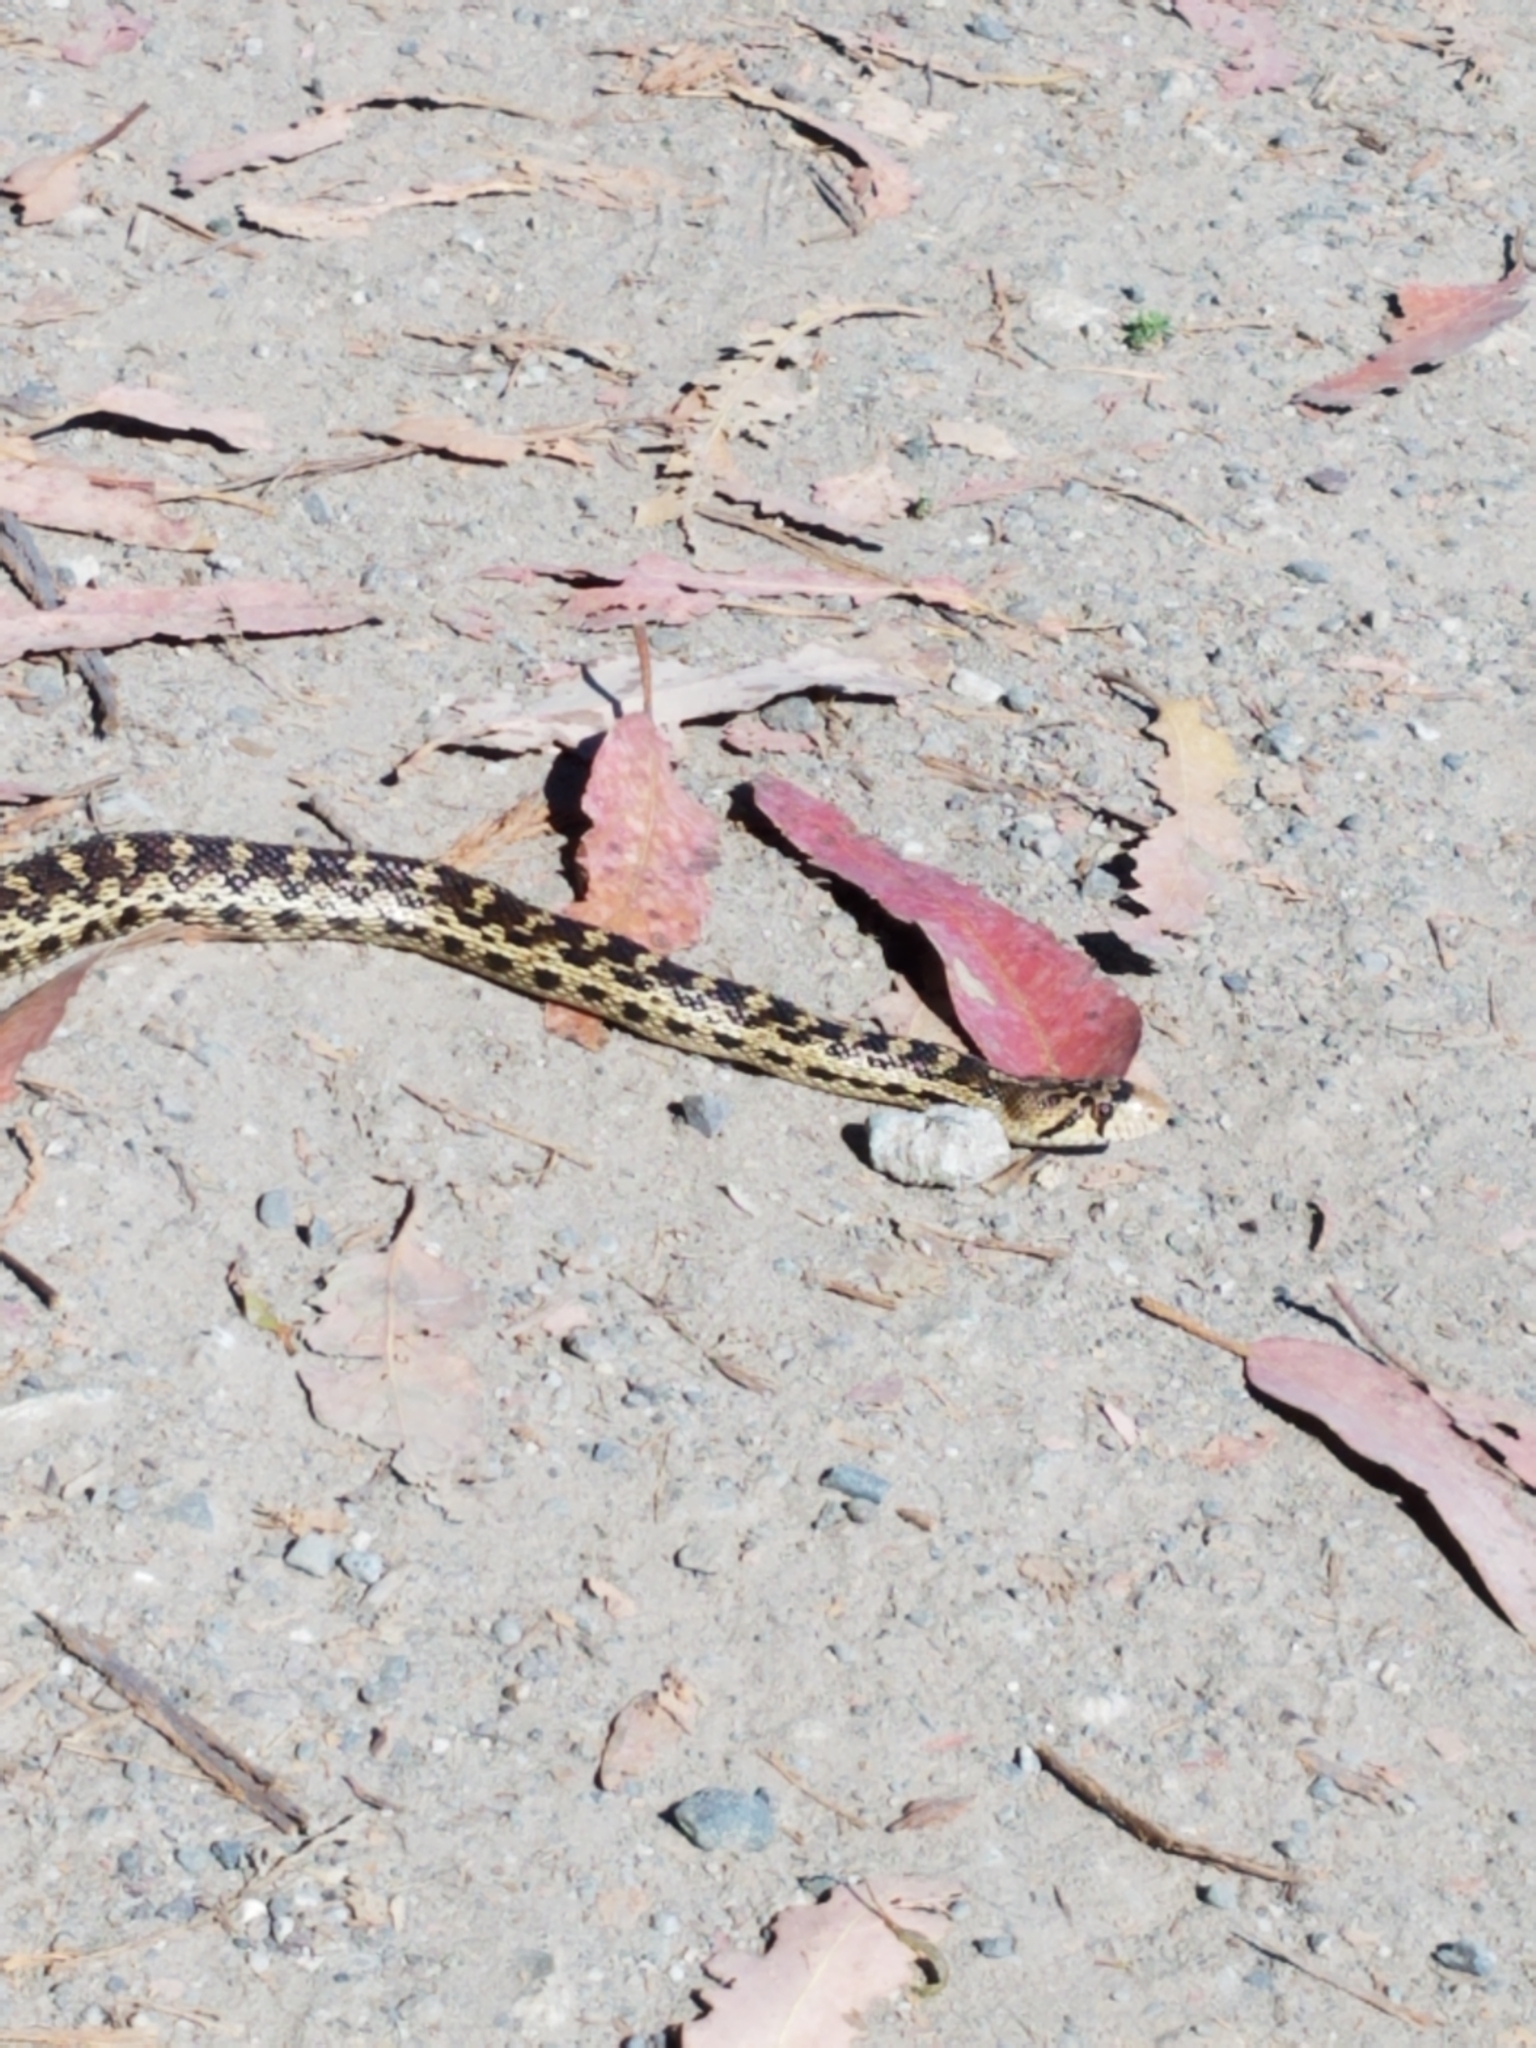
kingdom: Animalia
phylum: Chordata
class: Squamata
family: Colubridae
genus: Pituophis
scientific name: Pituophis catenifer
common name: Gopher snake
